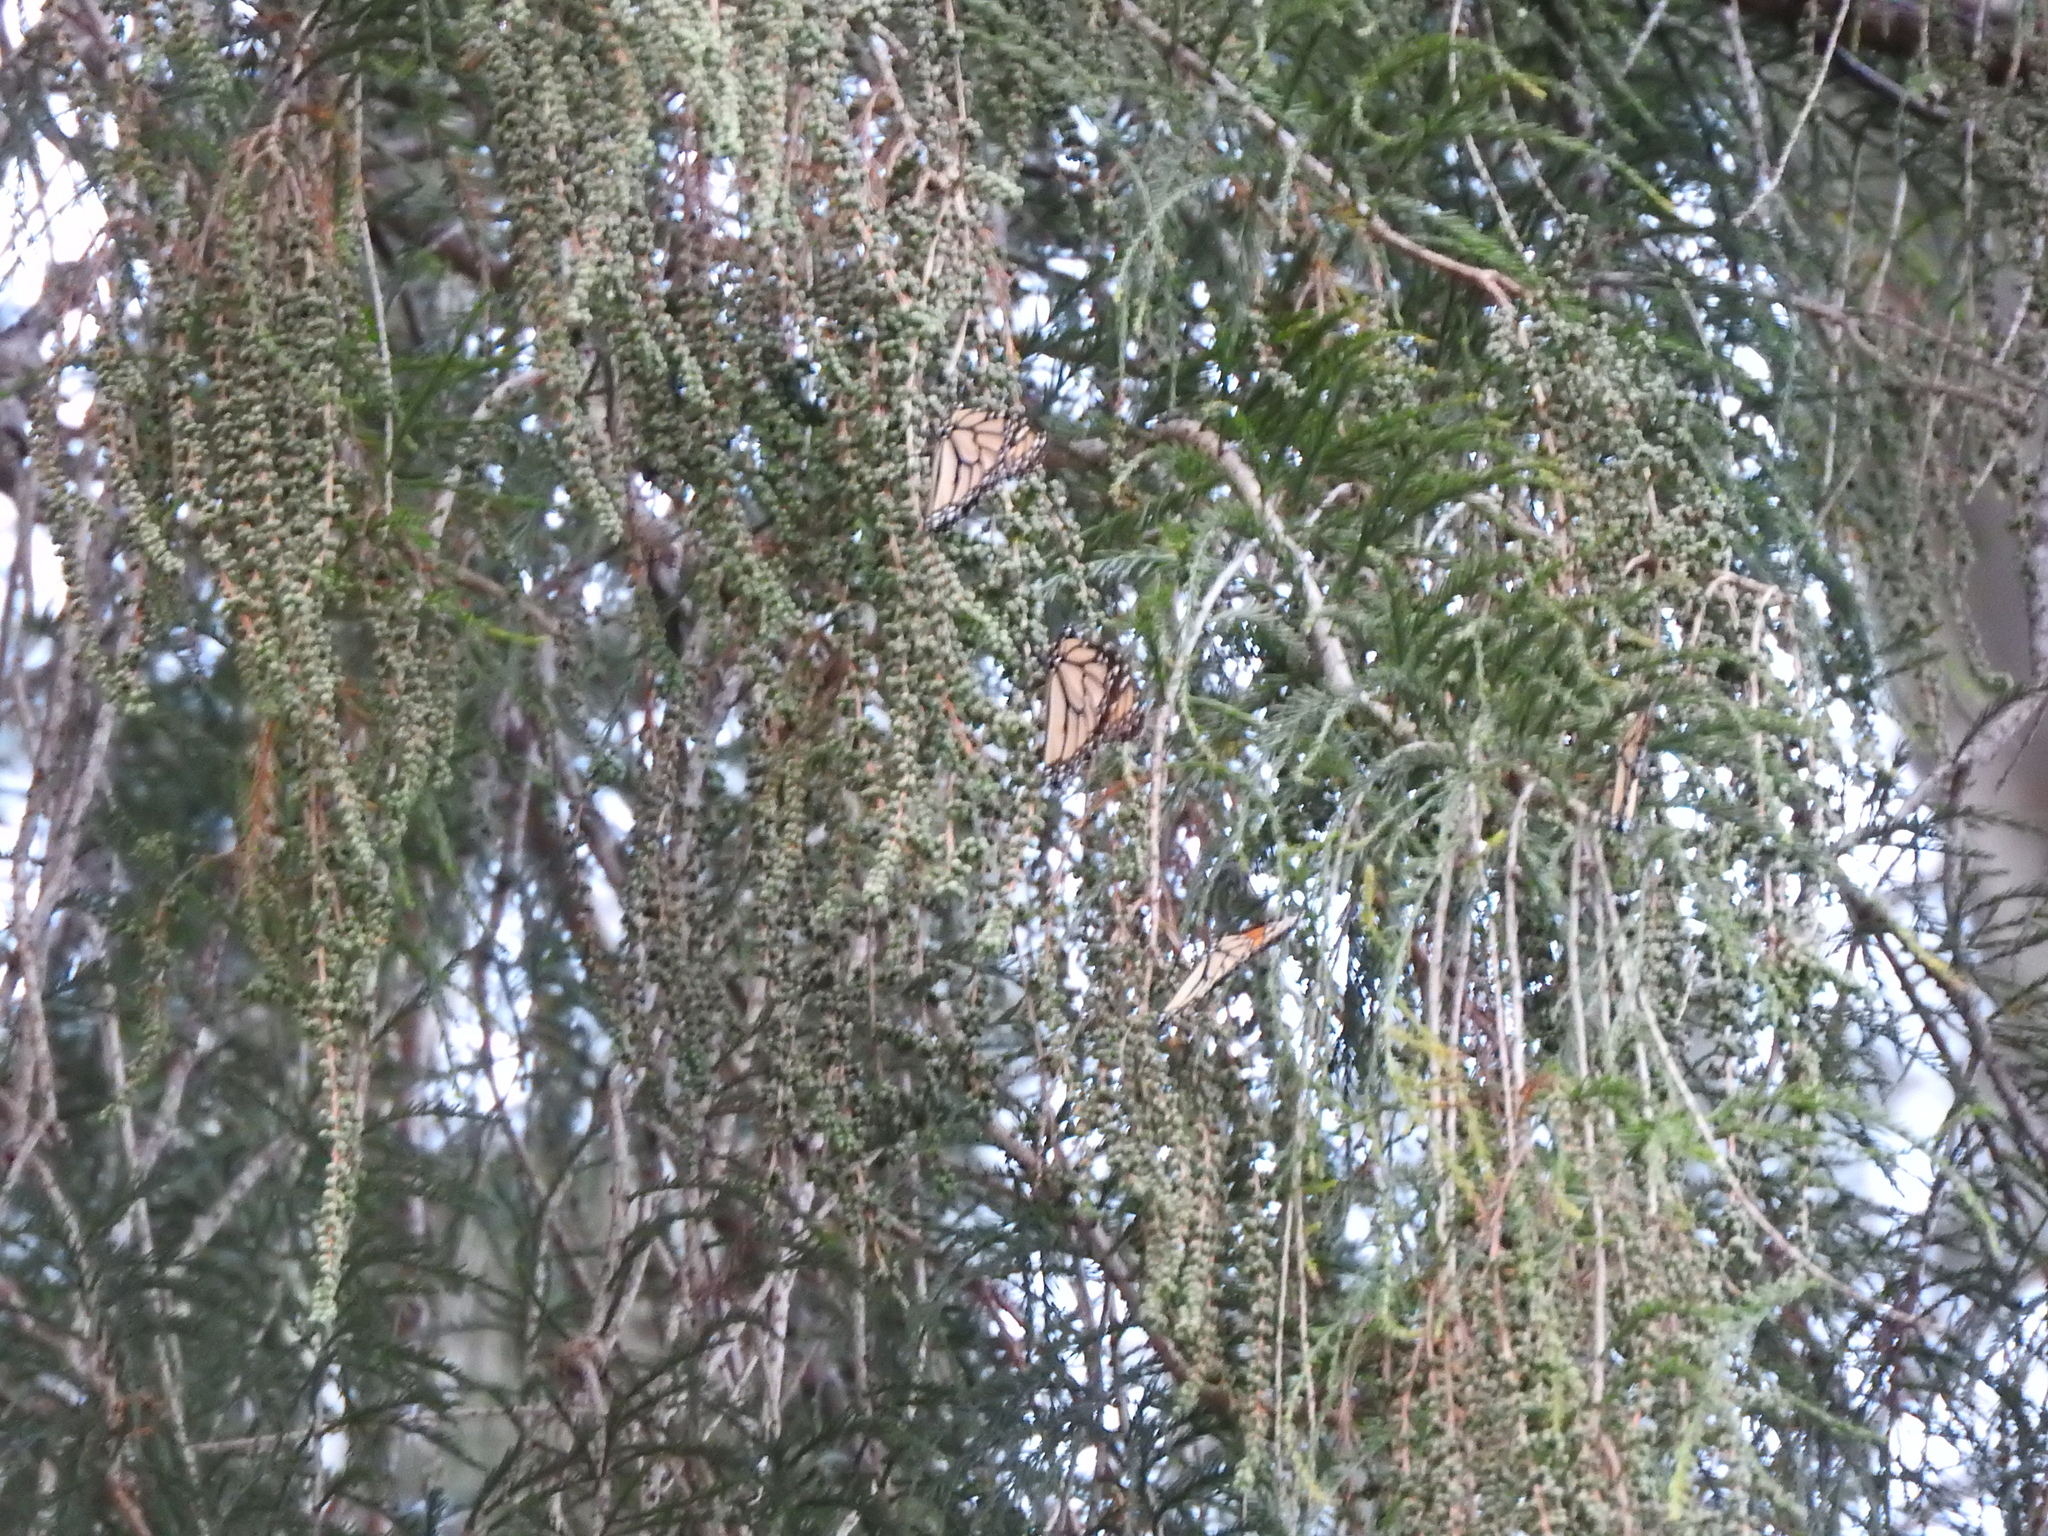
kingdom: Animalia
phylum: Arthropoda
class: Insecta
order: Lepidoptera
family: Nymphalidae
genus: Danaus
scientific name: Danaus plexippus
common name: Monarch
